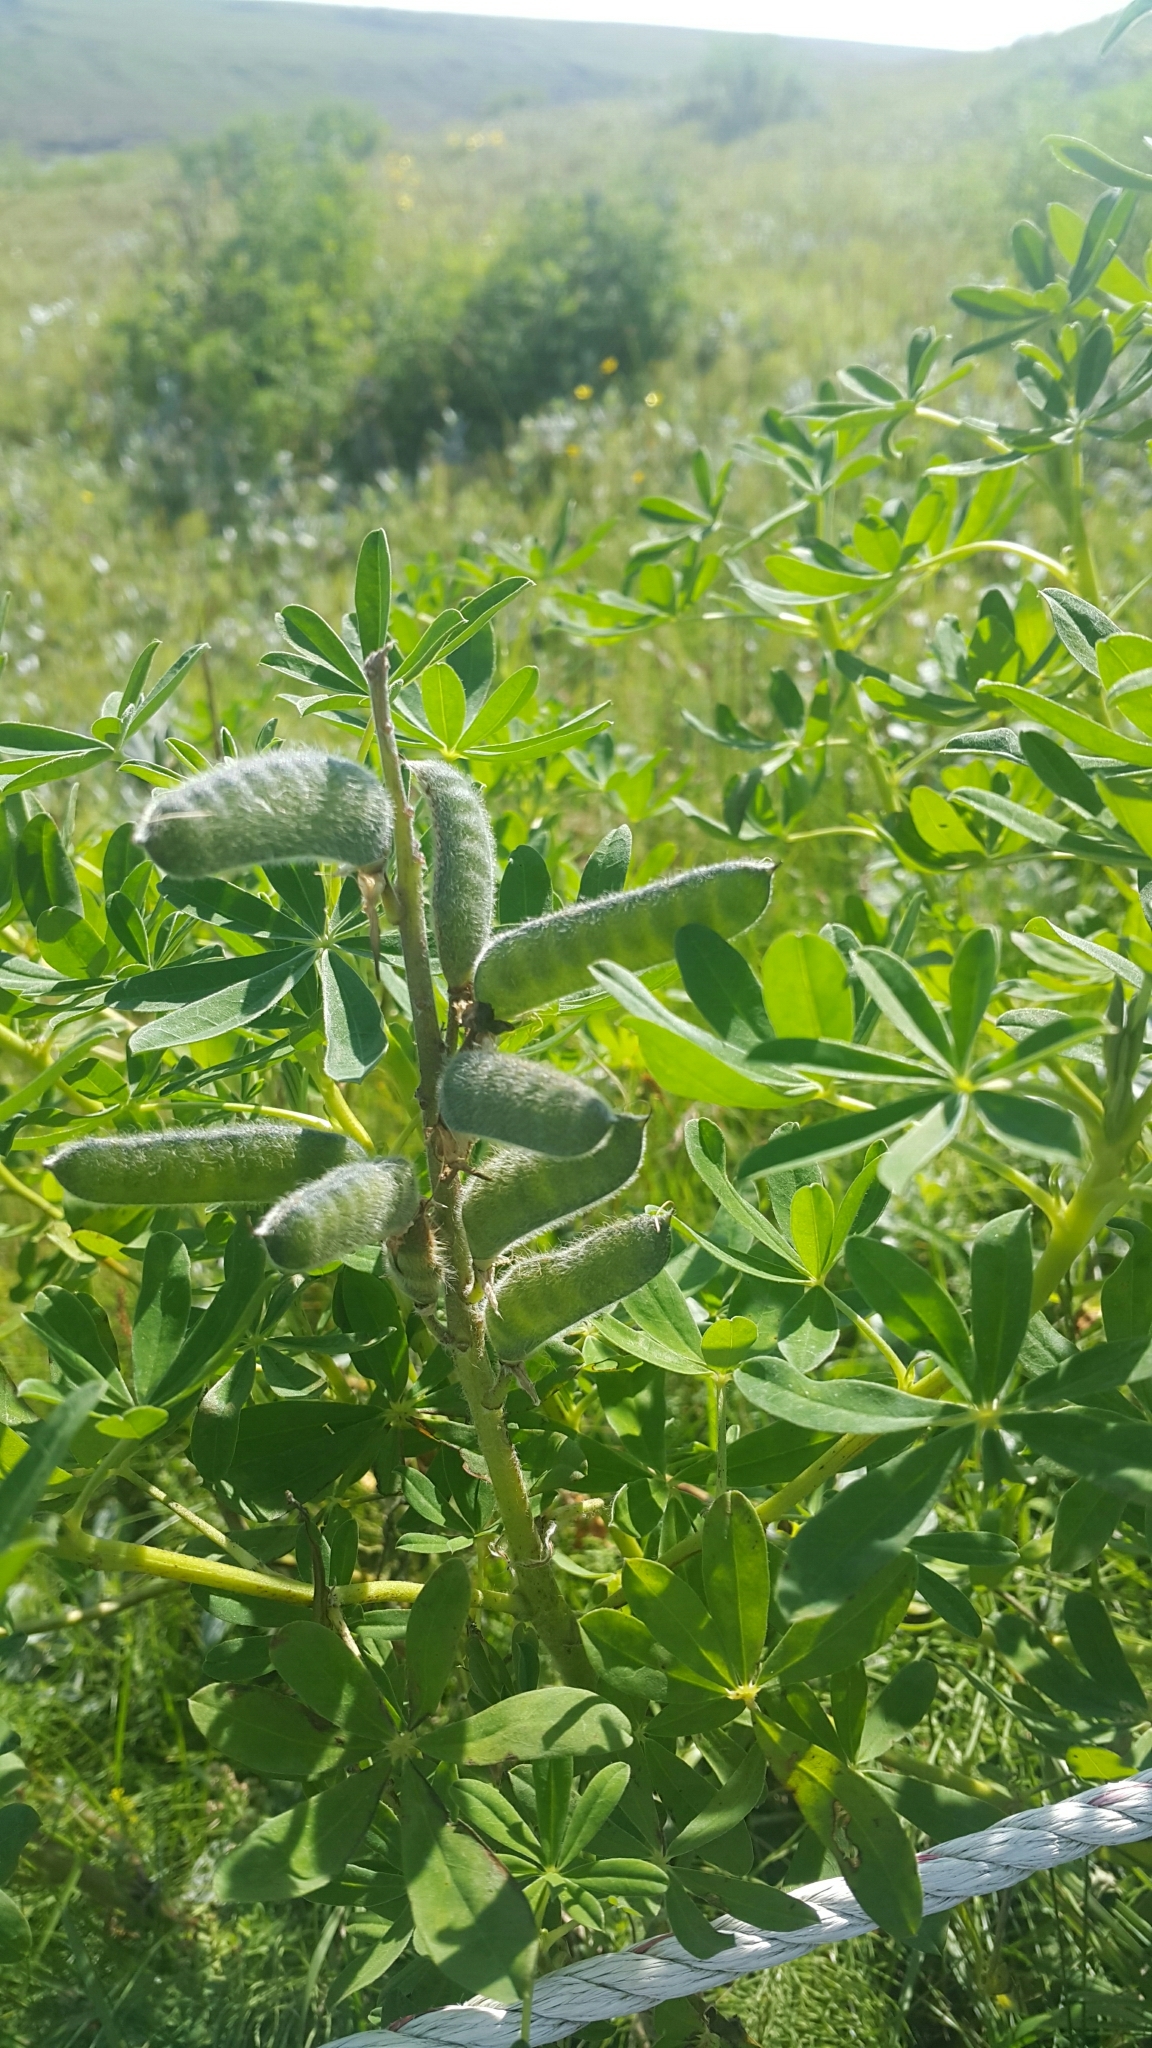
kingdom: Plantae
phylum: Tracheophyta
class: Magnoliopsida
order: Fabales
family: Fabaceae
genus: Lupinus
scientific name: Lupinus nootkatensis
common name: Nootka lupine
